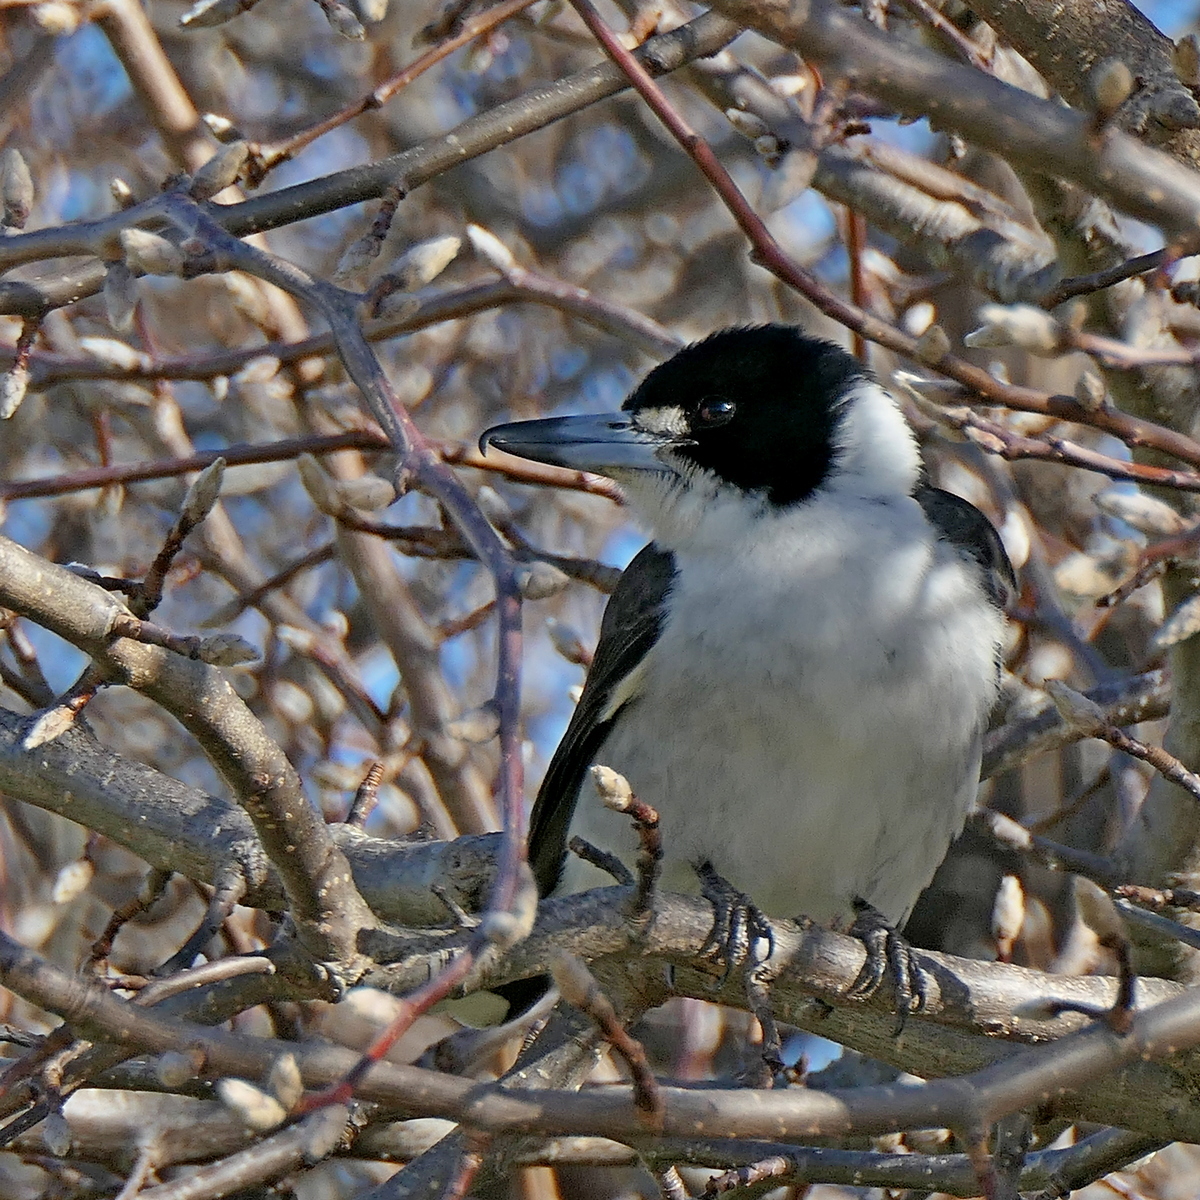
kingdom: Animalia
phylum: Chordata
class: Aves
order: Passeriformes
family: Cracticidae
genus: Cracticus
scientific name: Cracticus torquatus
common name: Grey butcherbird
